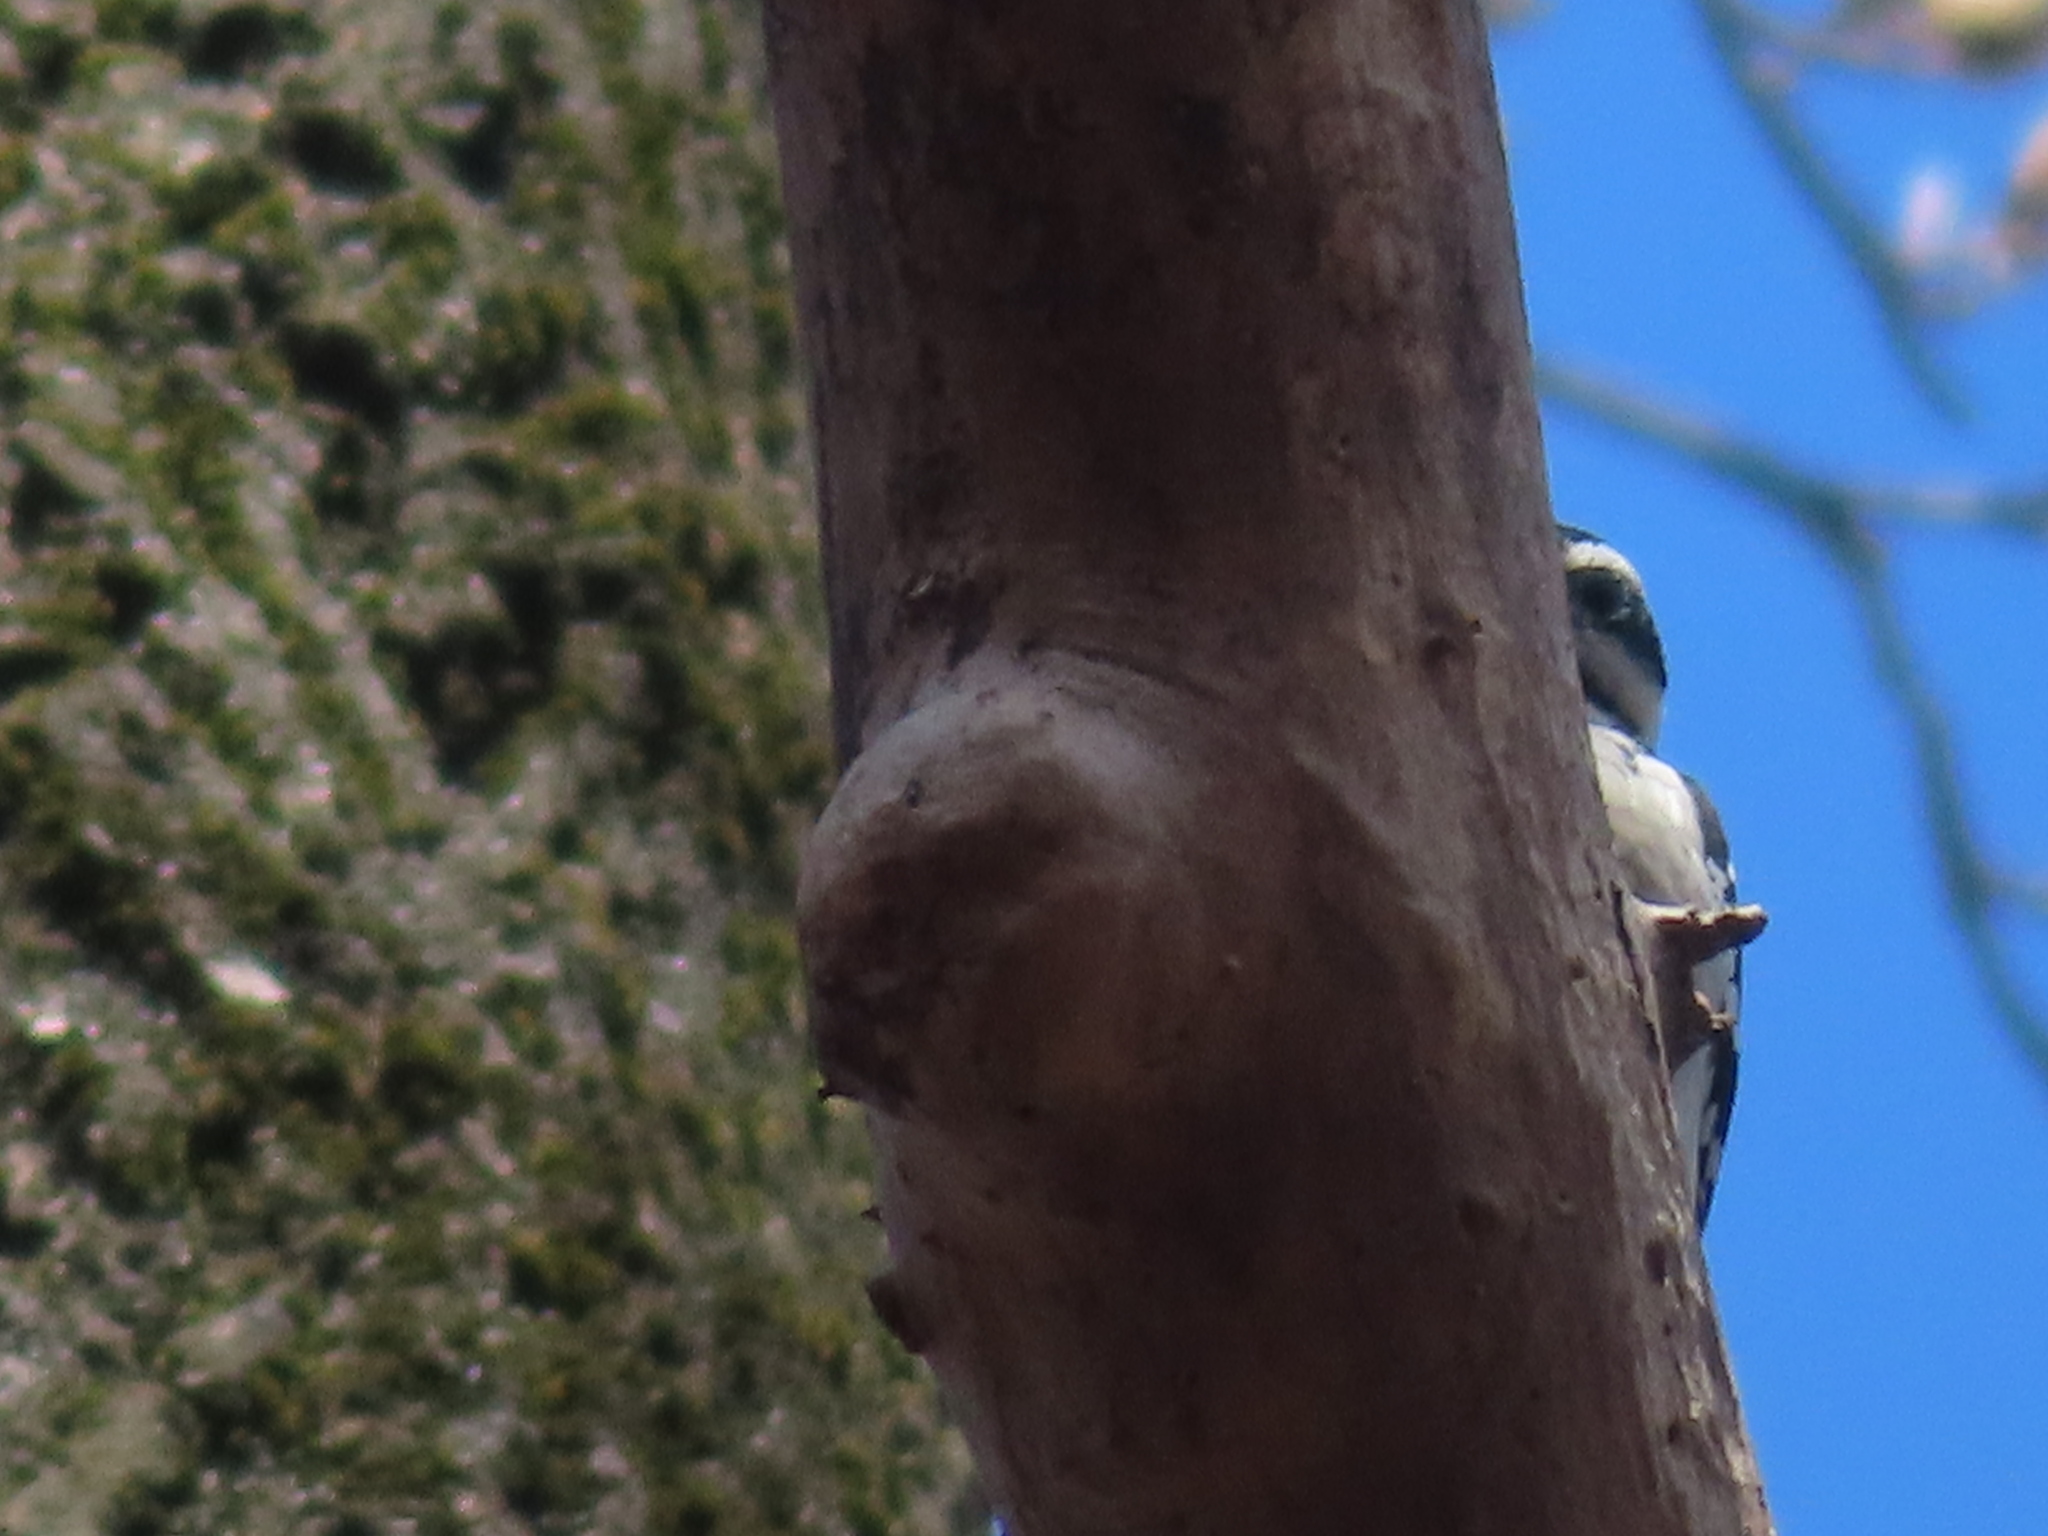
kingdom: Animalia
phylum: Chordata
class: Aves
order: Piciformes
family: Picidae
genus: Leuconotopicus
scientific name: Leuconotopicus villosus
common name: Hairy woodpecker
